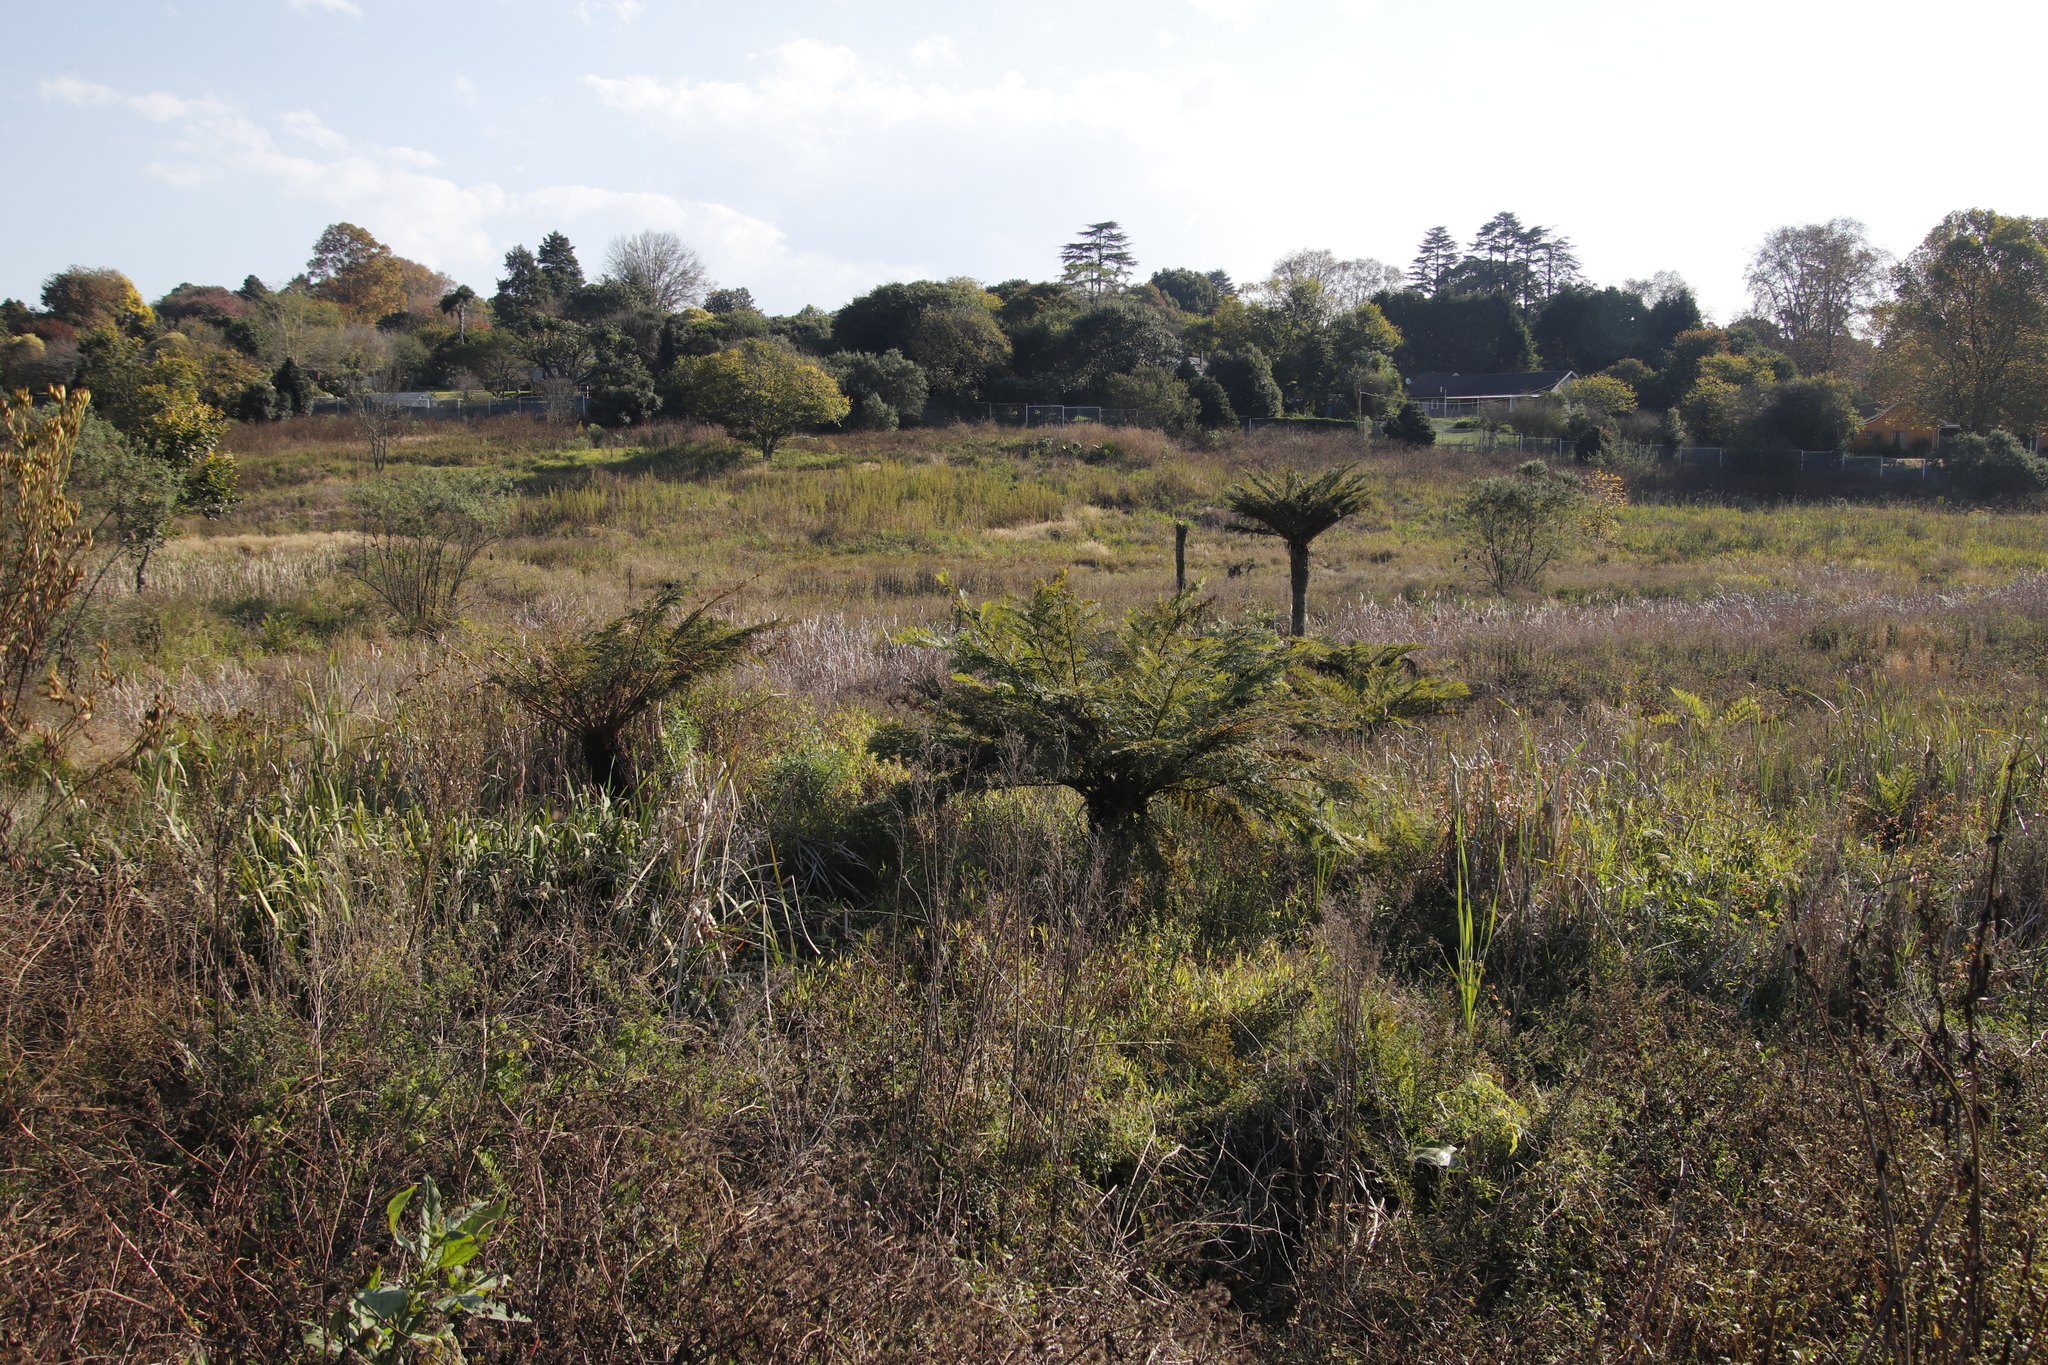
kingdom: Plantae
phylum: Tracheophyta
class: Polypodiopsida
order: Cyatheales
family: Cyatheaceae
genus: Alsophila
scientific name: Alsophila dregei
